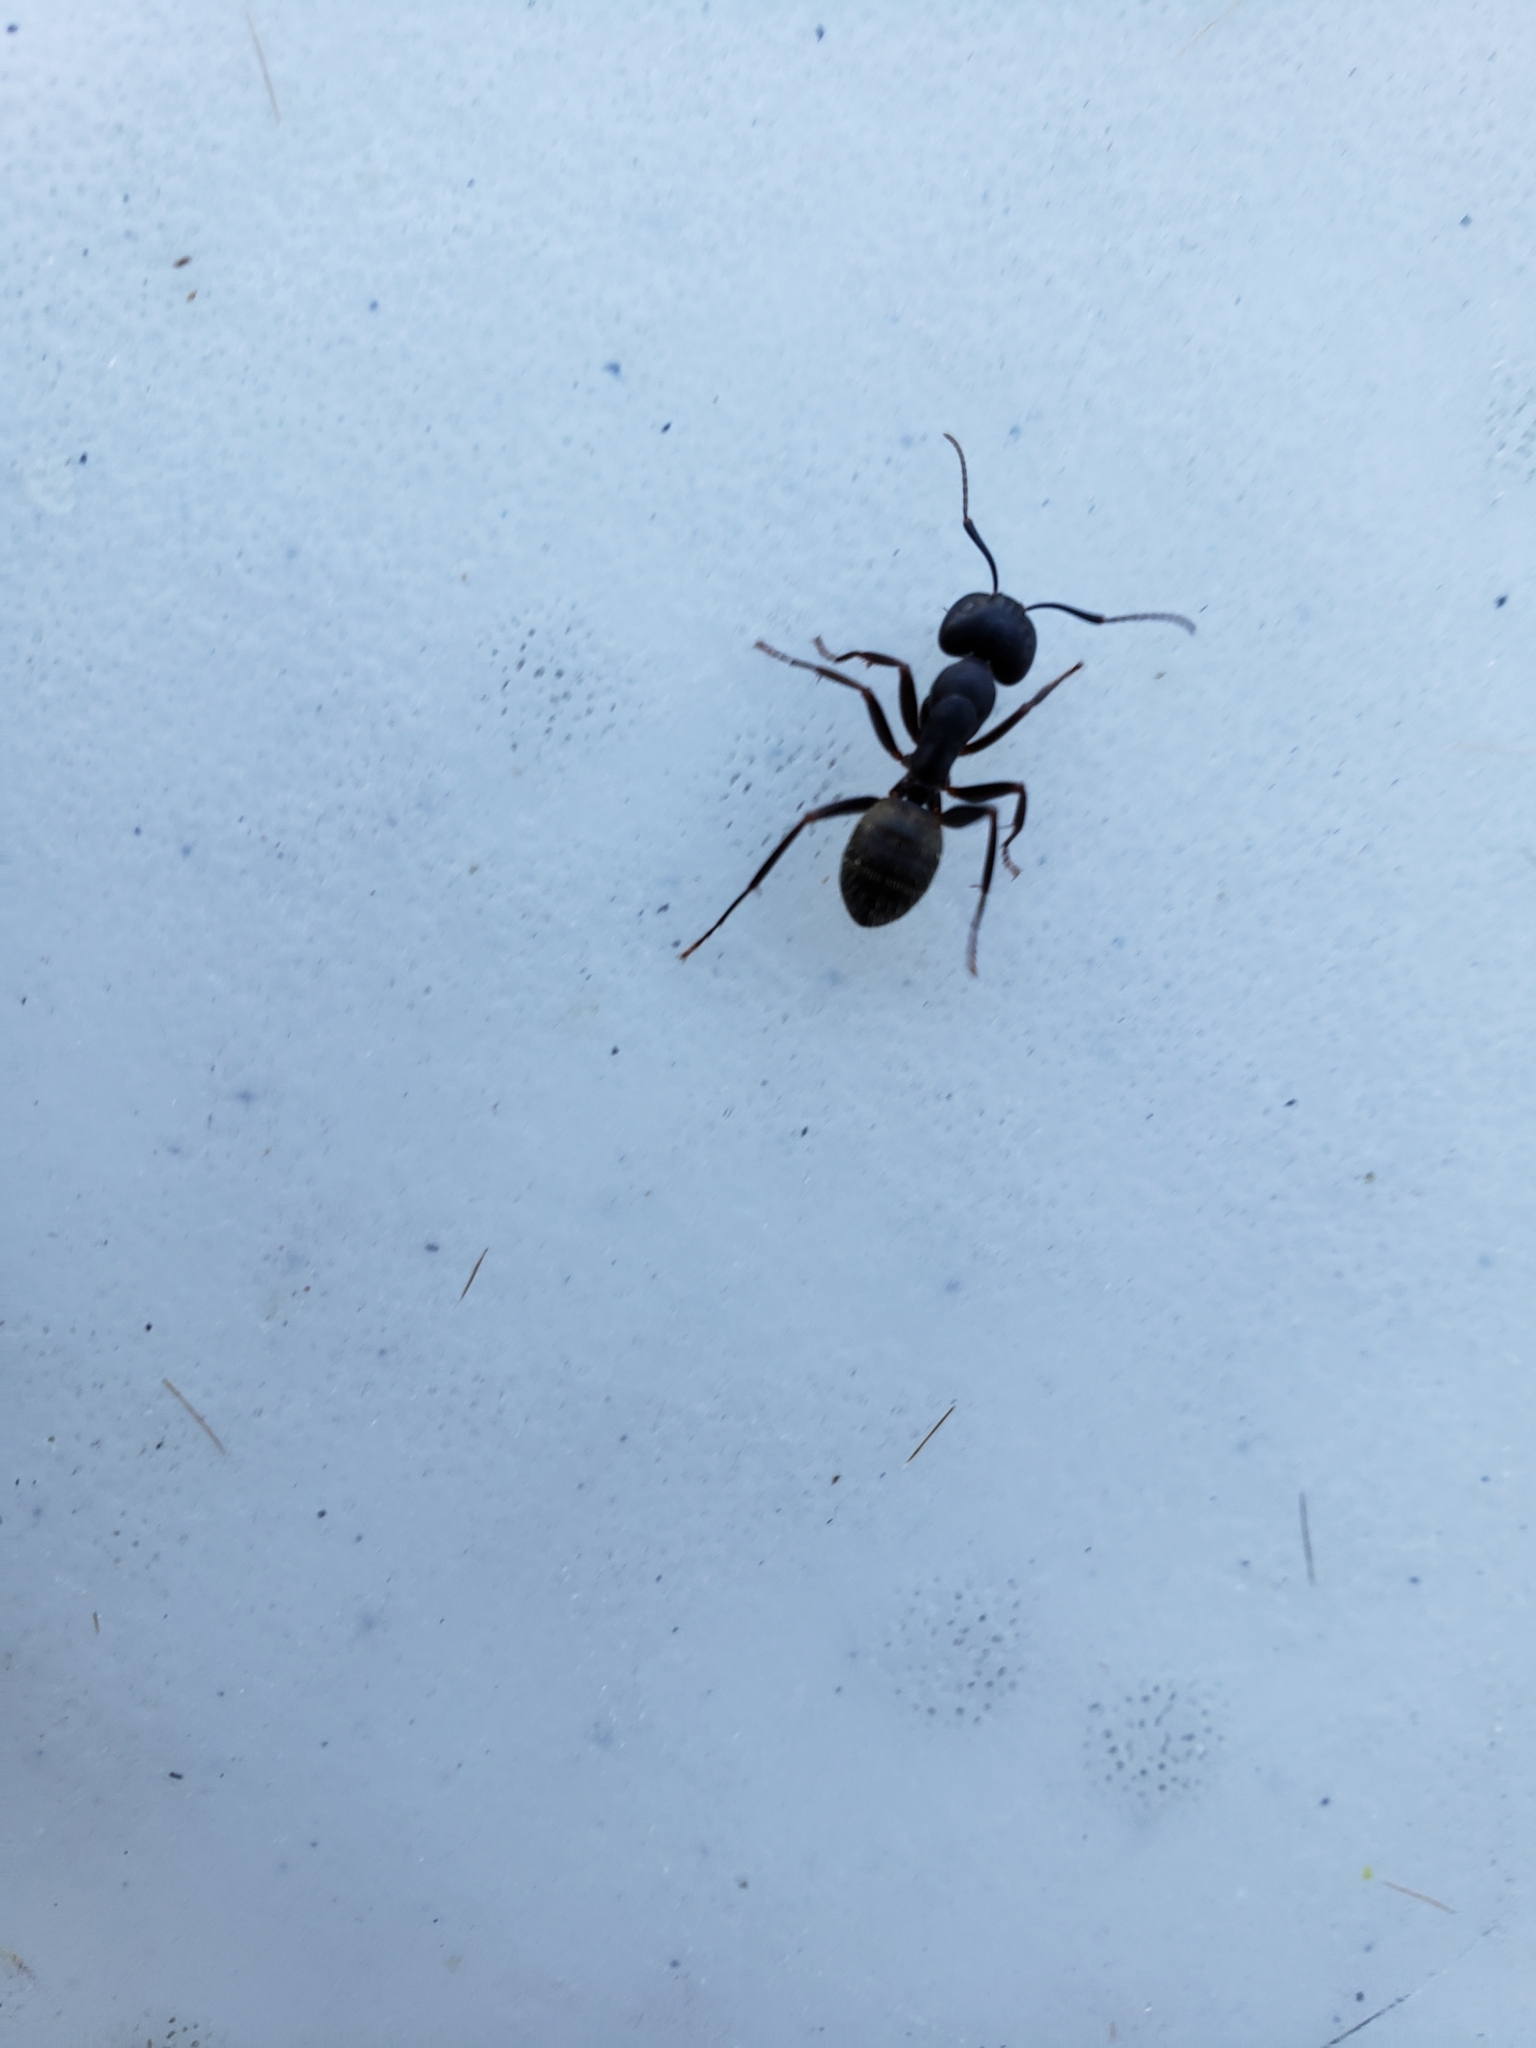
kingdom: Animalia
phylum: Arthropoda
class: Insecta
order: Hymenoptera
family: Formicidae
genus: Camponotus
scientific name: Camponotus pennsylvanicus
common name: Black carpenter ant
